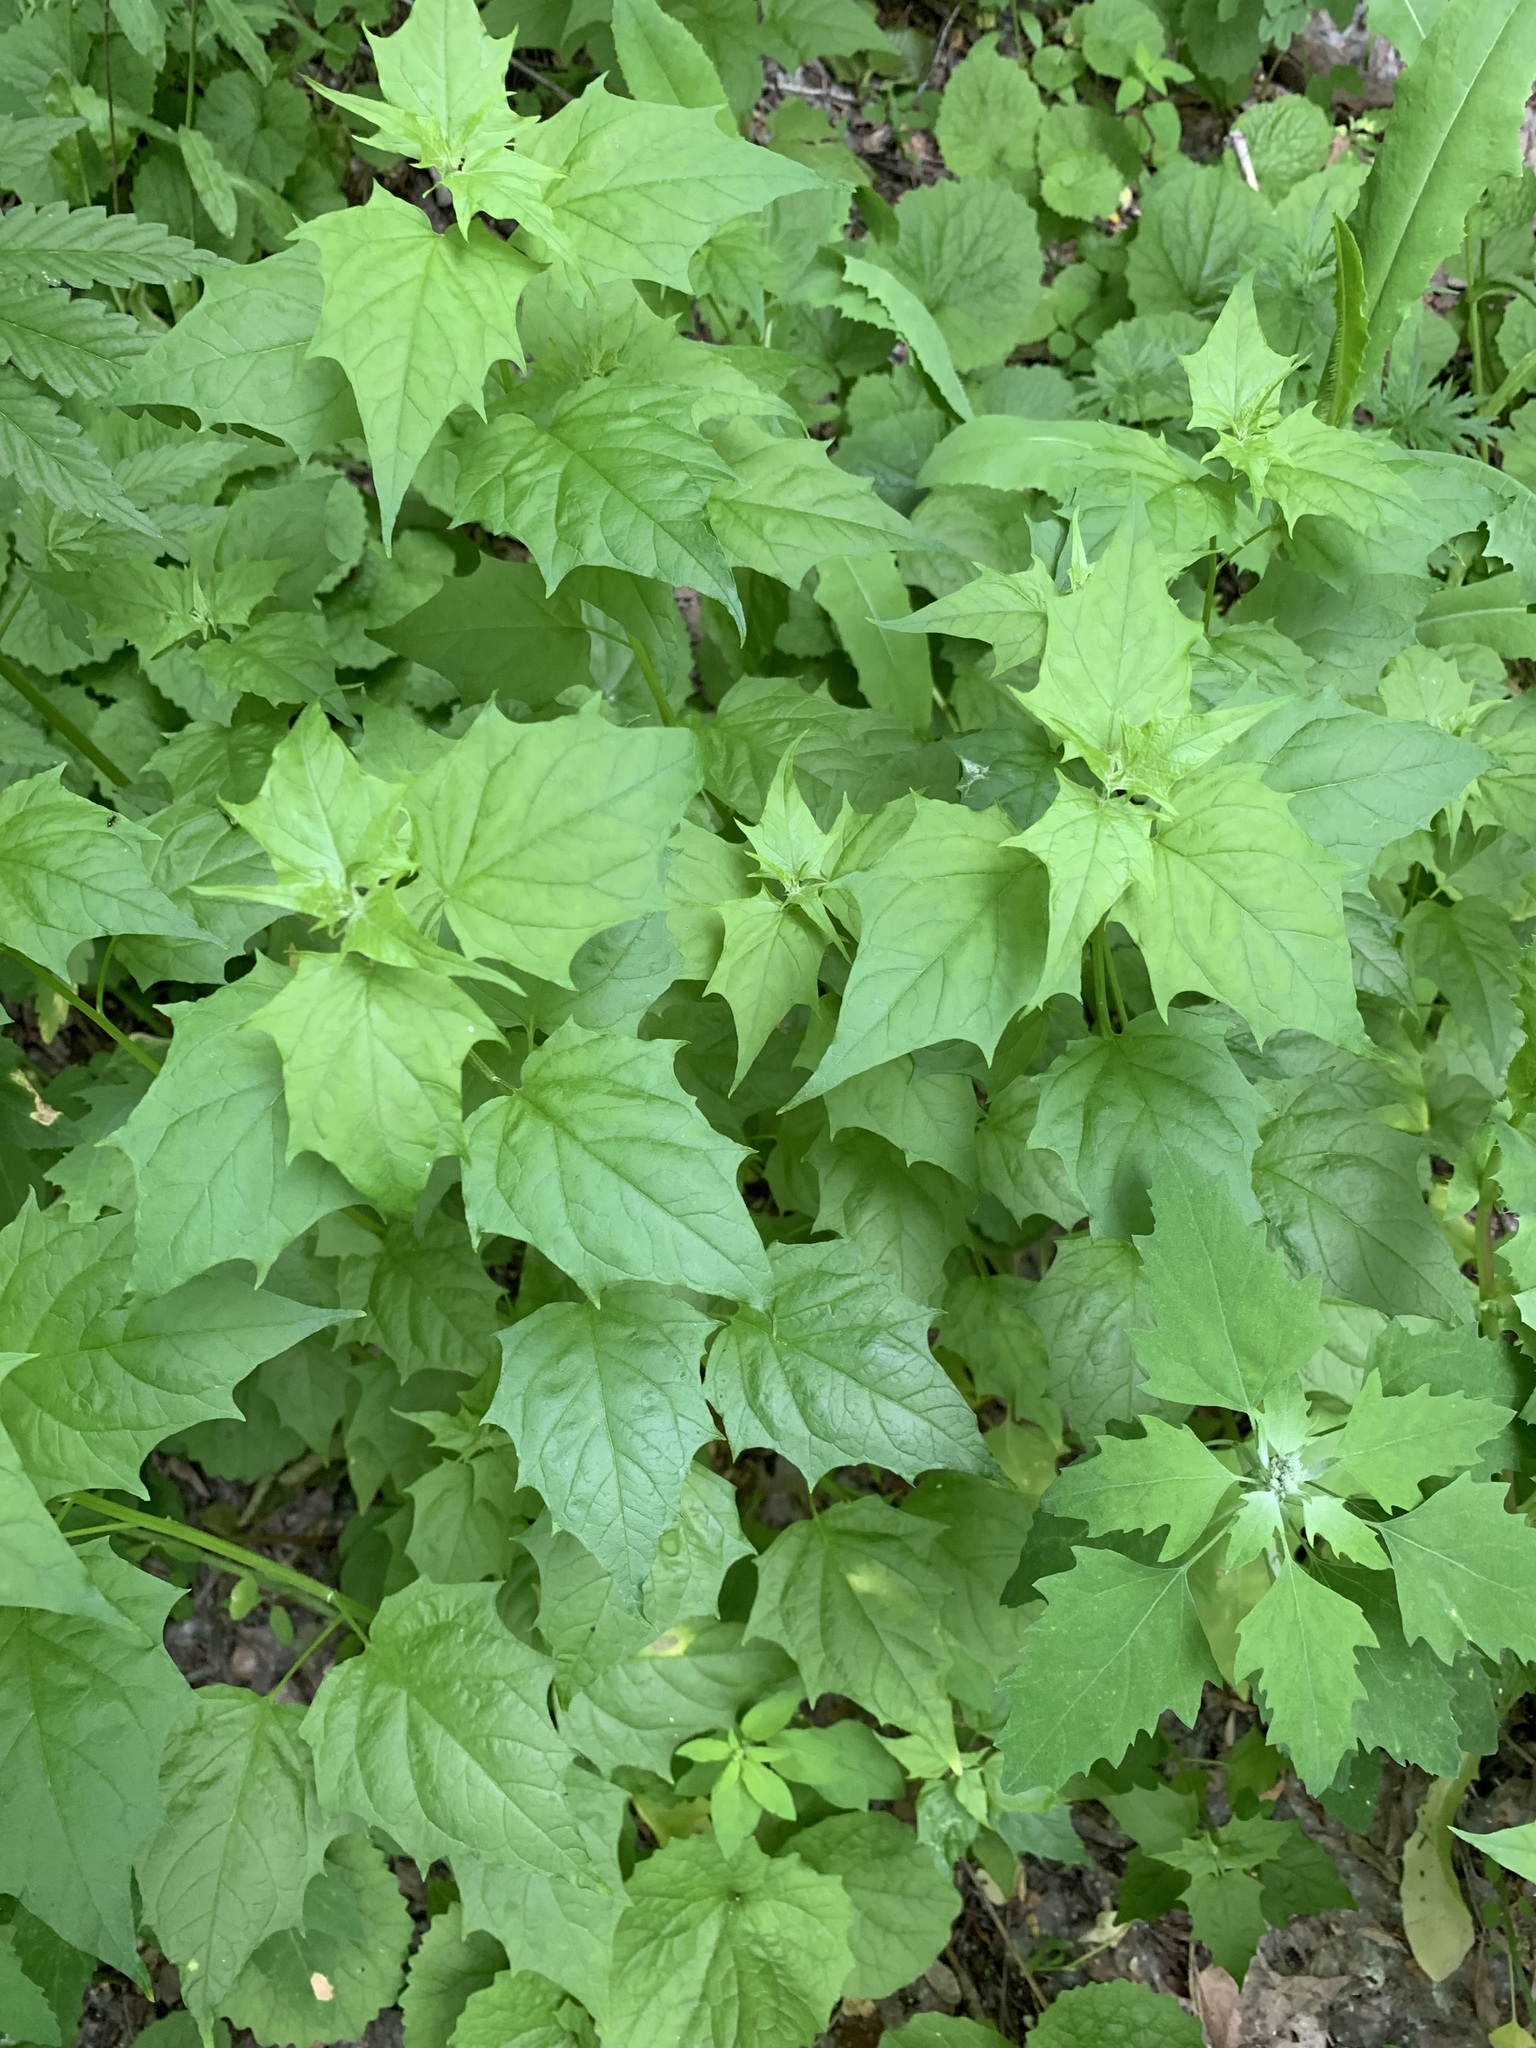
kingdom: Plantae
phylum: Tracheophyta
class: Magnoliopsida
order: Caryophyllales
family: Amaranthaceae
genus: Chenopodiastrum
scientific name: Chenopodiastrum hybridum
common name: Mapleleaf goosefoot
